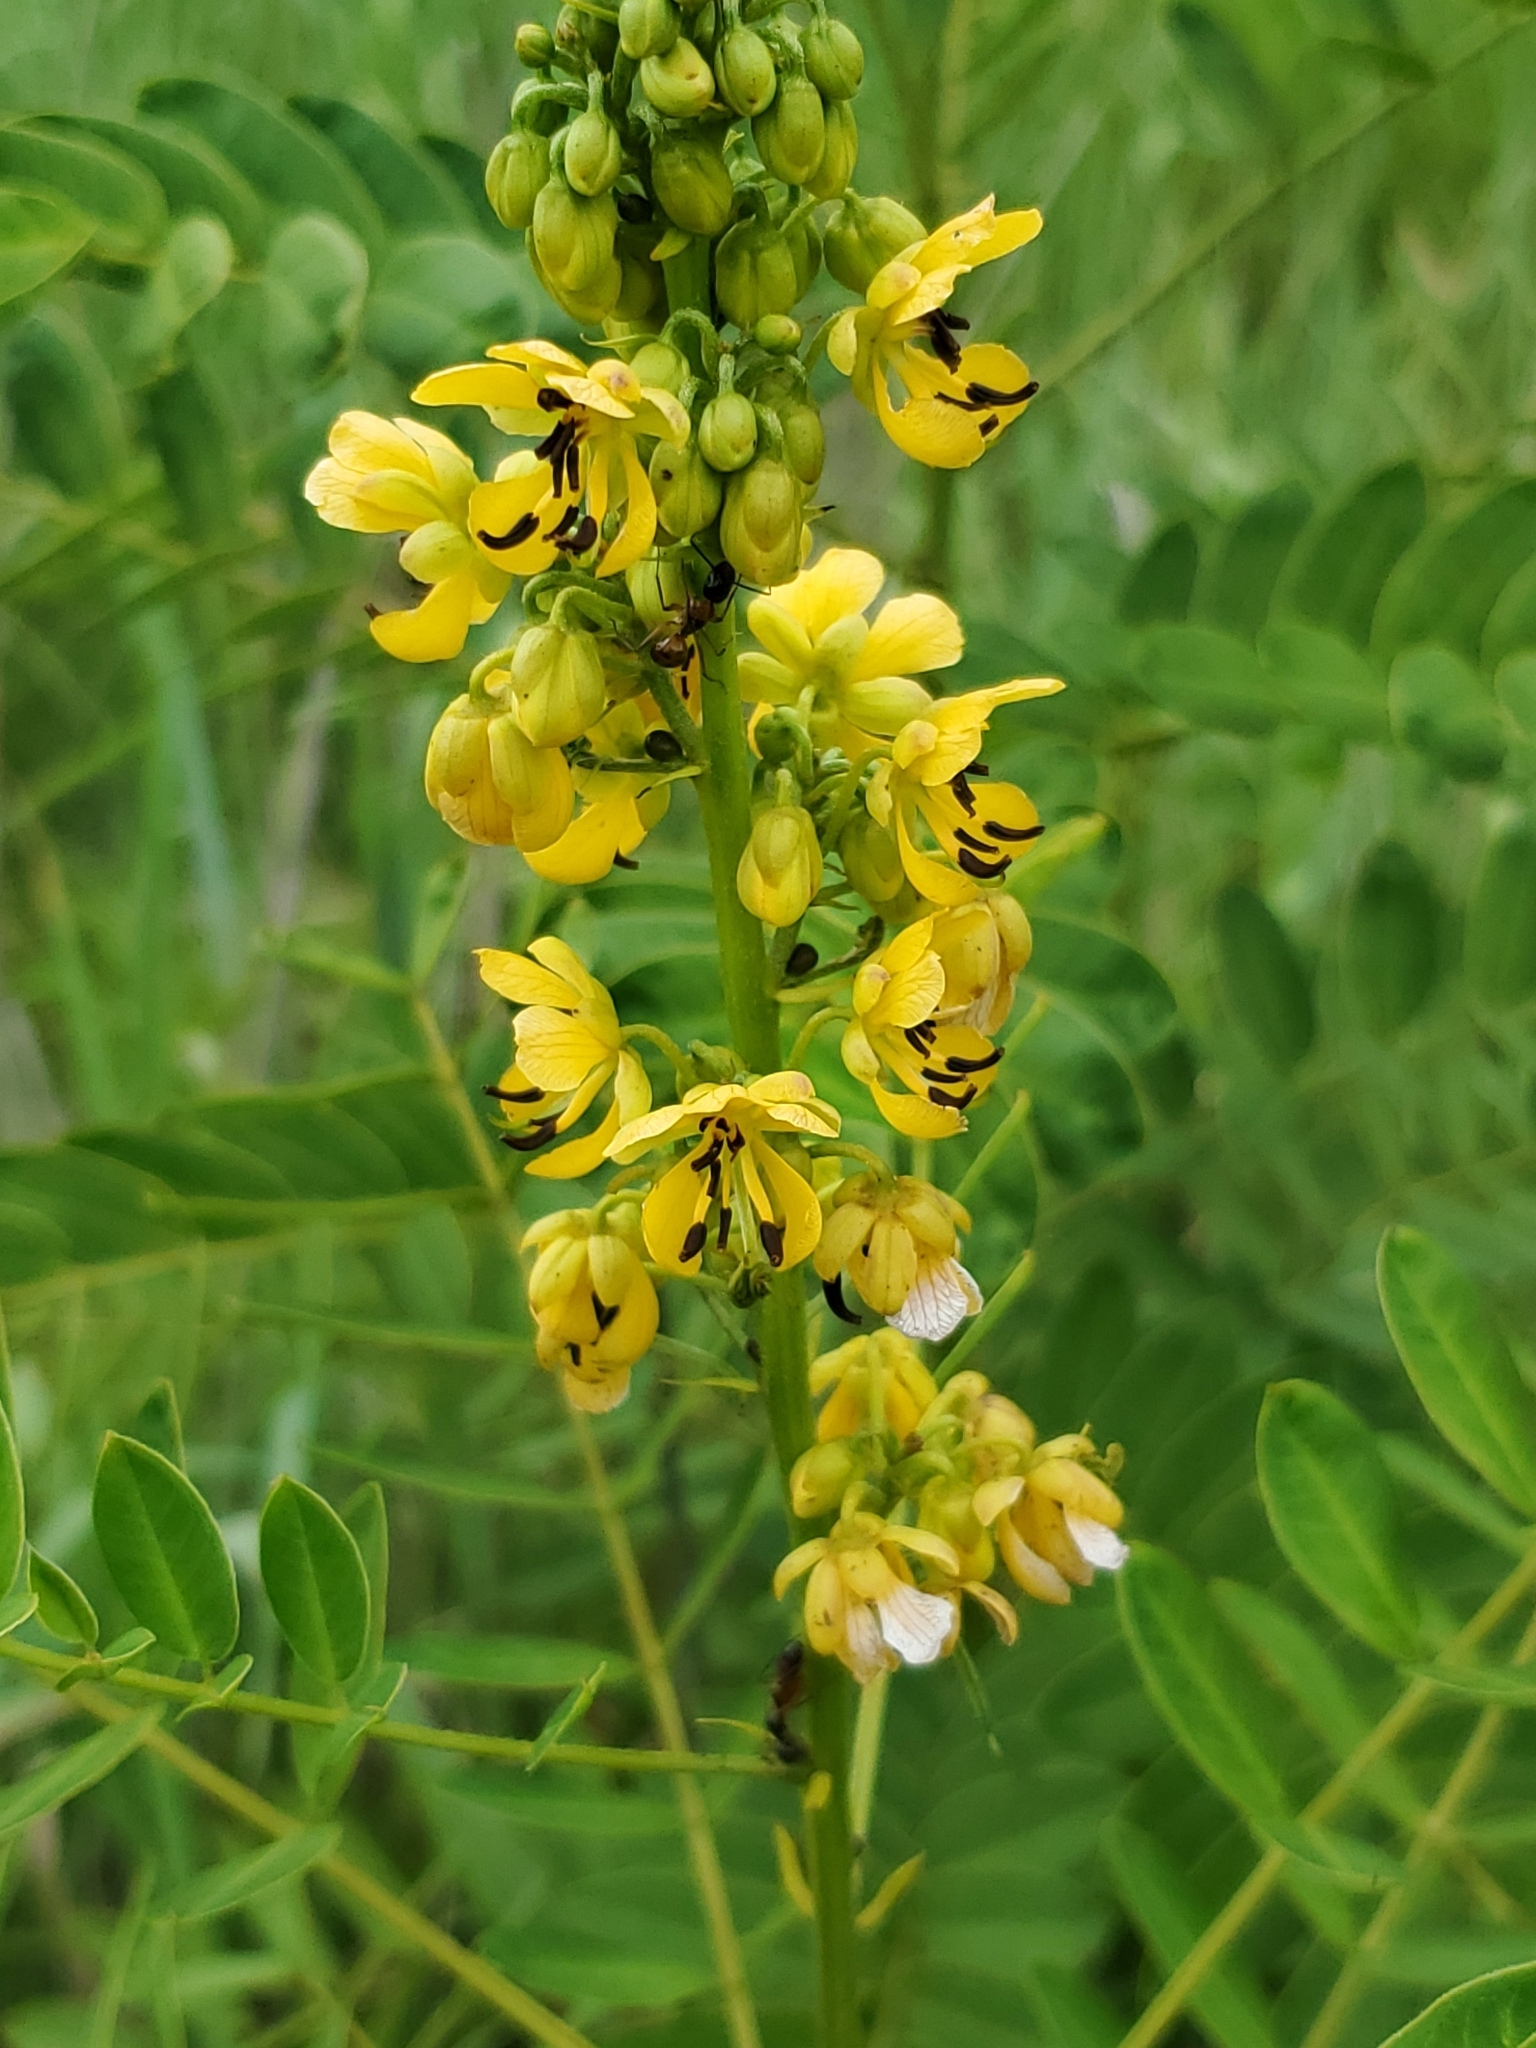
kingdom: Plantae
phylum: Tracheophyta
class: Magnoliopsida
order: Fabales
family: Fabaceae
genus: Senna
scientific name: Senna marilandica
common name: American senna
